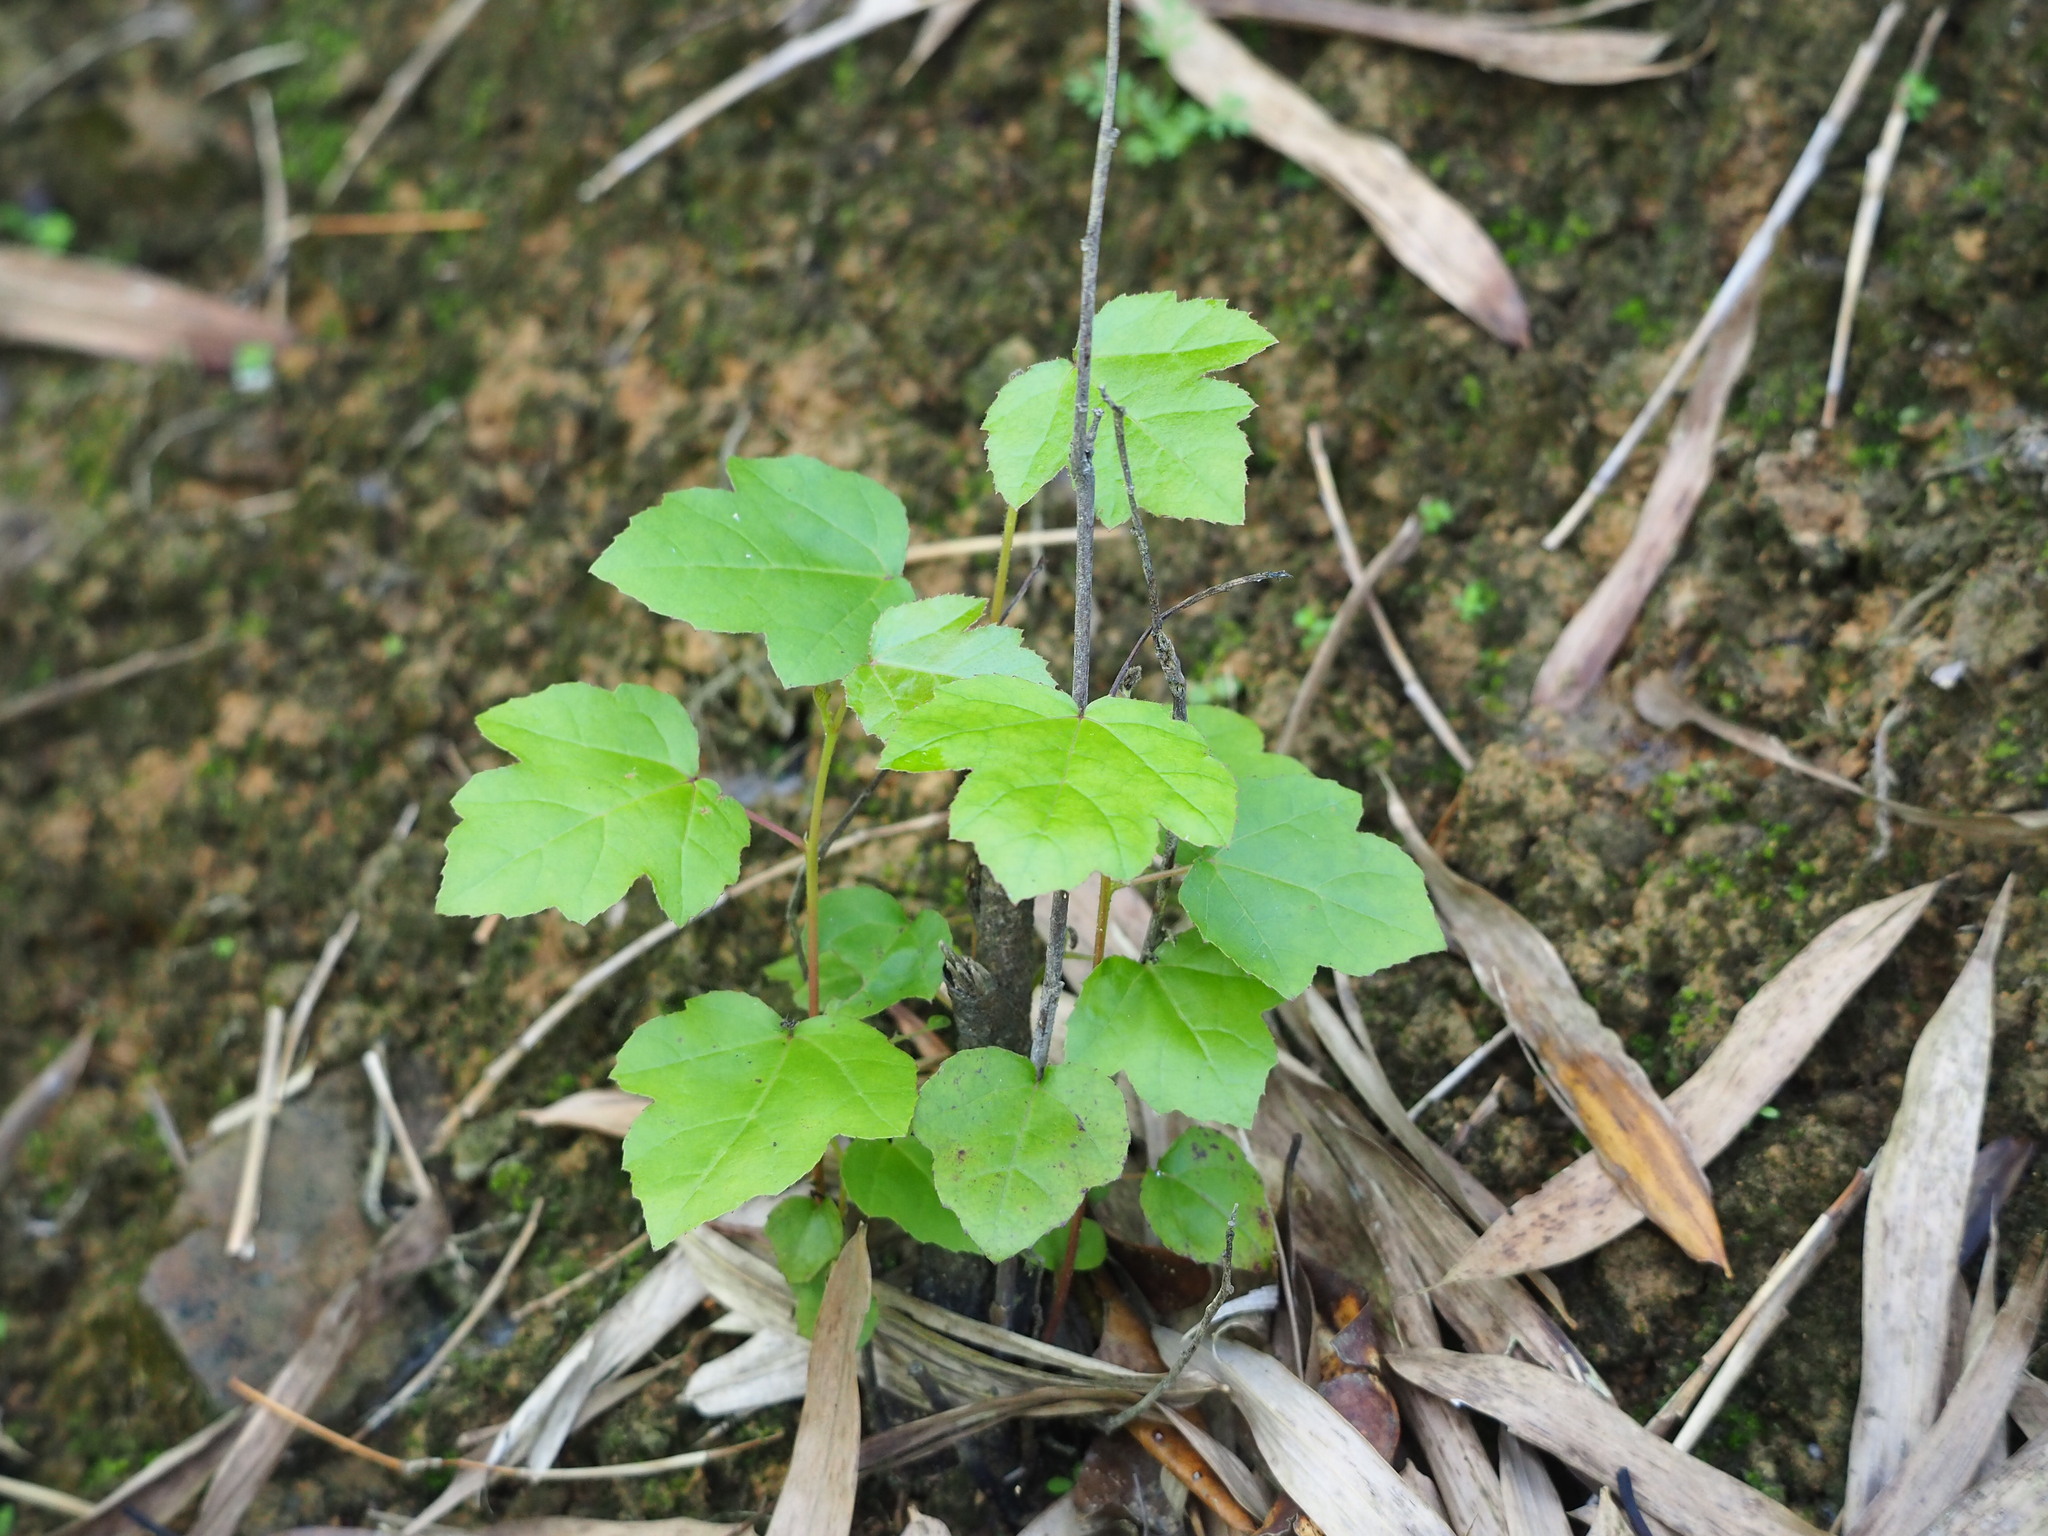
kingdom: Plantae
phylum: Tracheophyta
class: Magnoliopsida
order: Saxifragales
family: Altingiaceae
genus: Liquidambar
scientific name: Liquidambar formosana
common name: Chinese sweet gum
